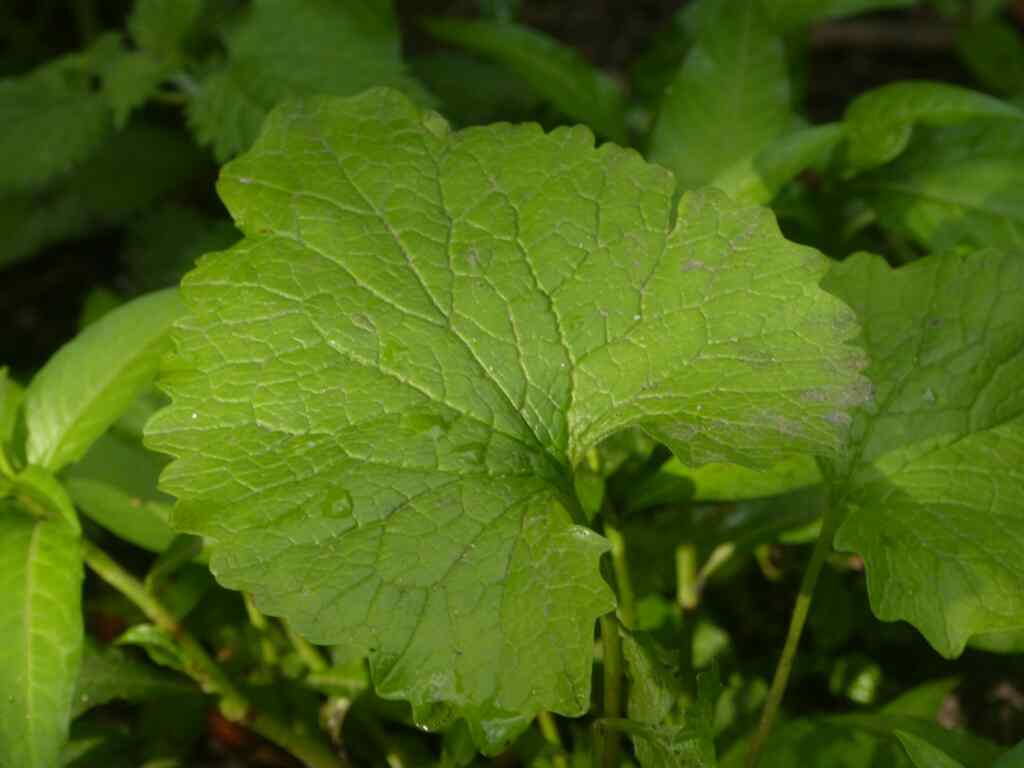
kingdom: Plantae
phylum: Tracheophyta
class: Magnoliopsida
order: Brassicales
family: Brassicaceae
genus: Alliaria
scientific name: Alliaria petiolata
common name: Garlic mustard
